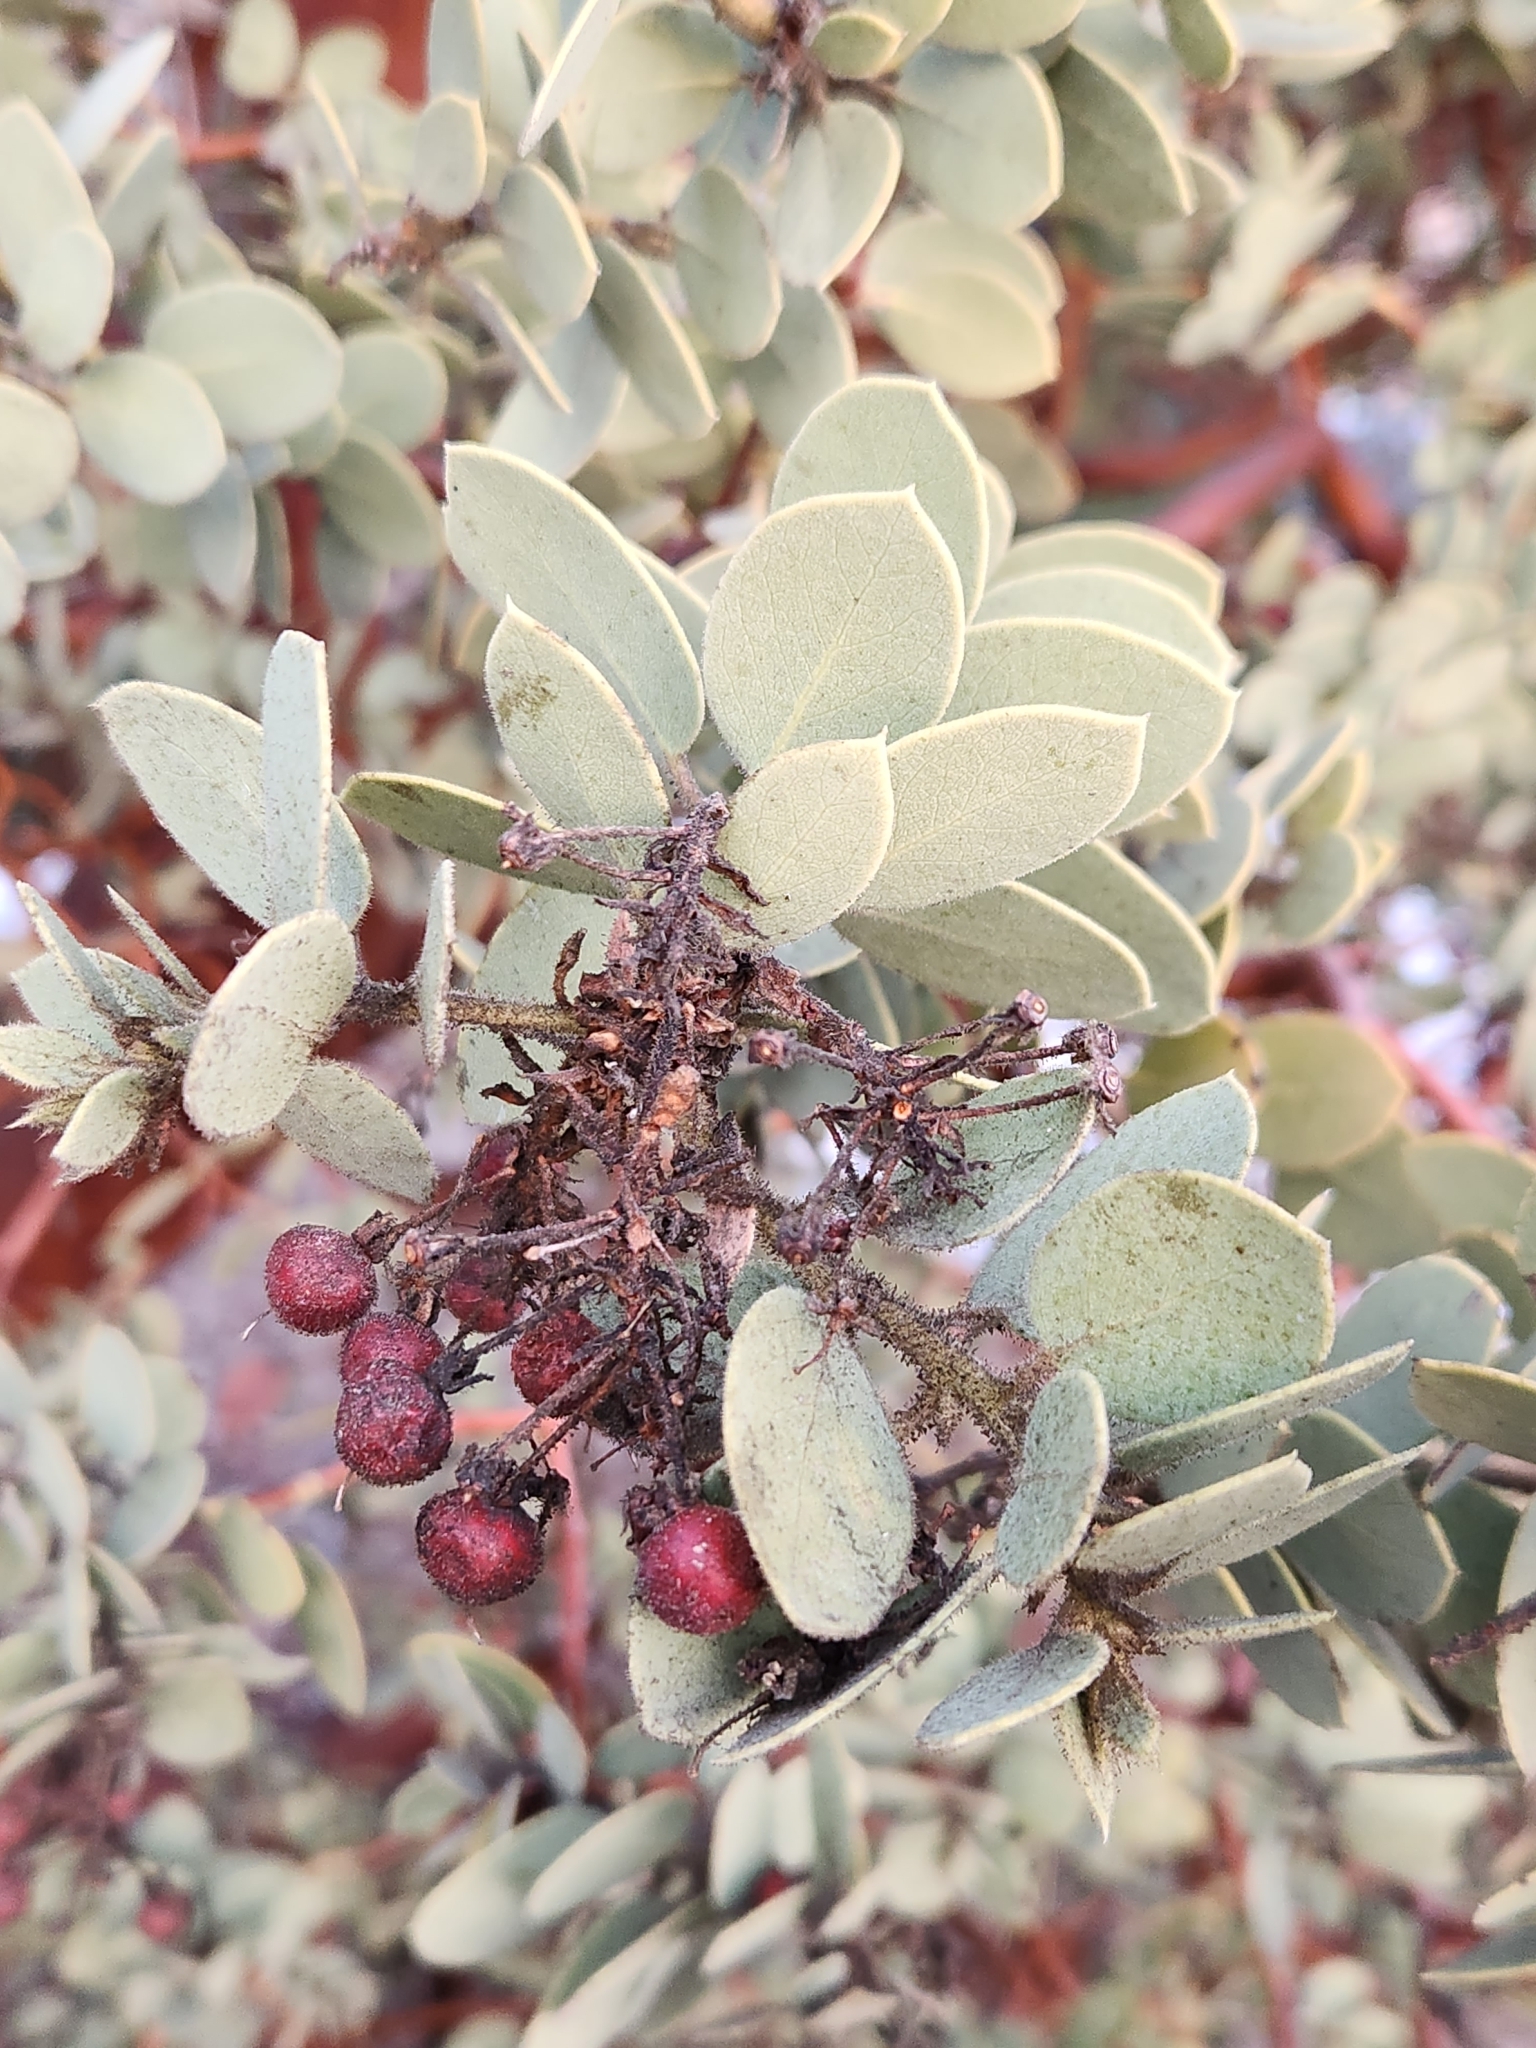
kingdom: Plantae
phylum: Tracheophyta
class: Magnoliopsida
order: Ericales
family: Ericaceae
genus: Arctostaphylos
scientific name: Arctostaphylos pringlei
